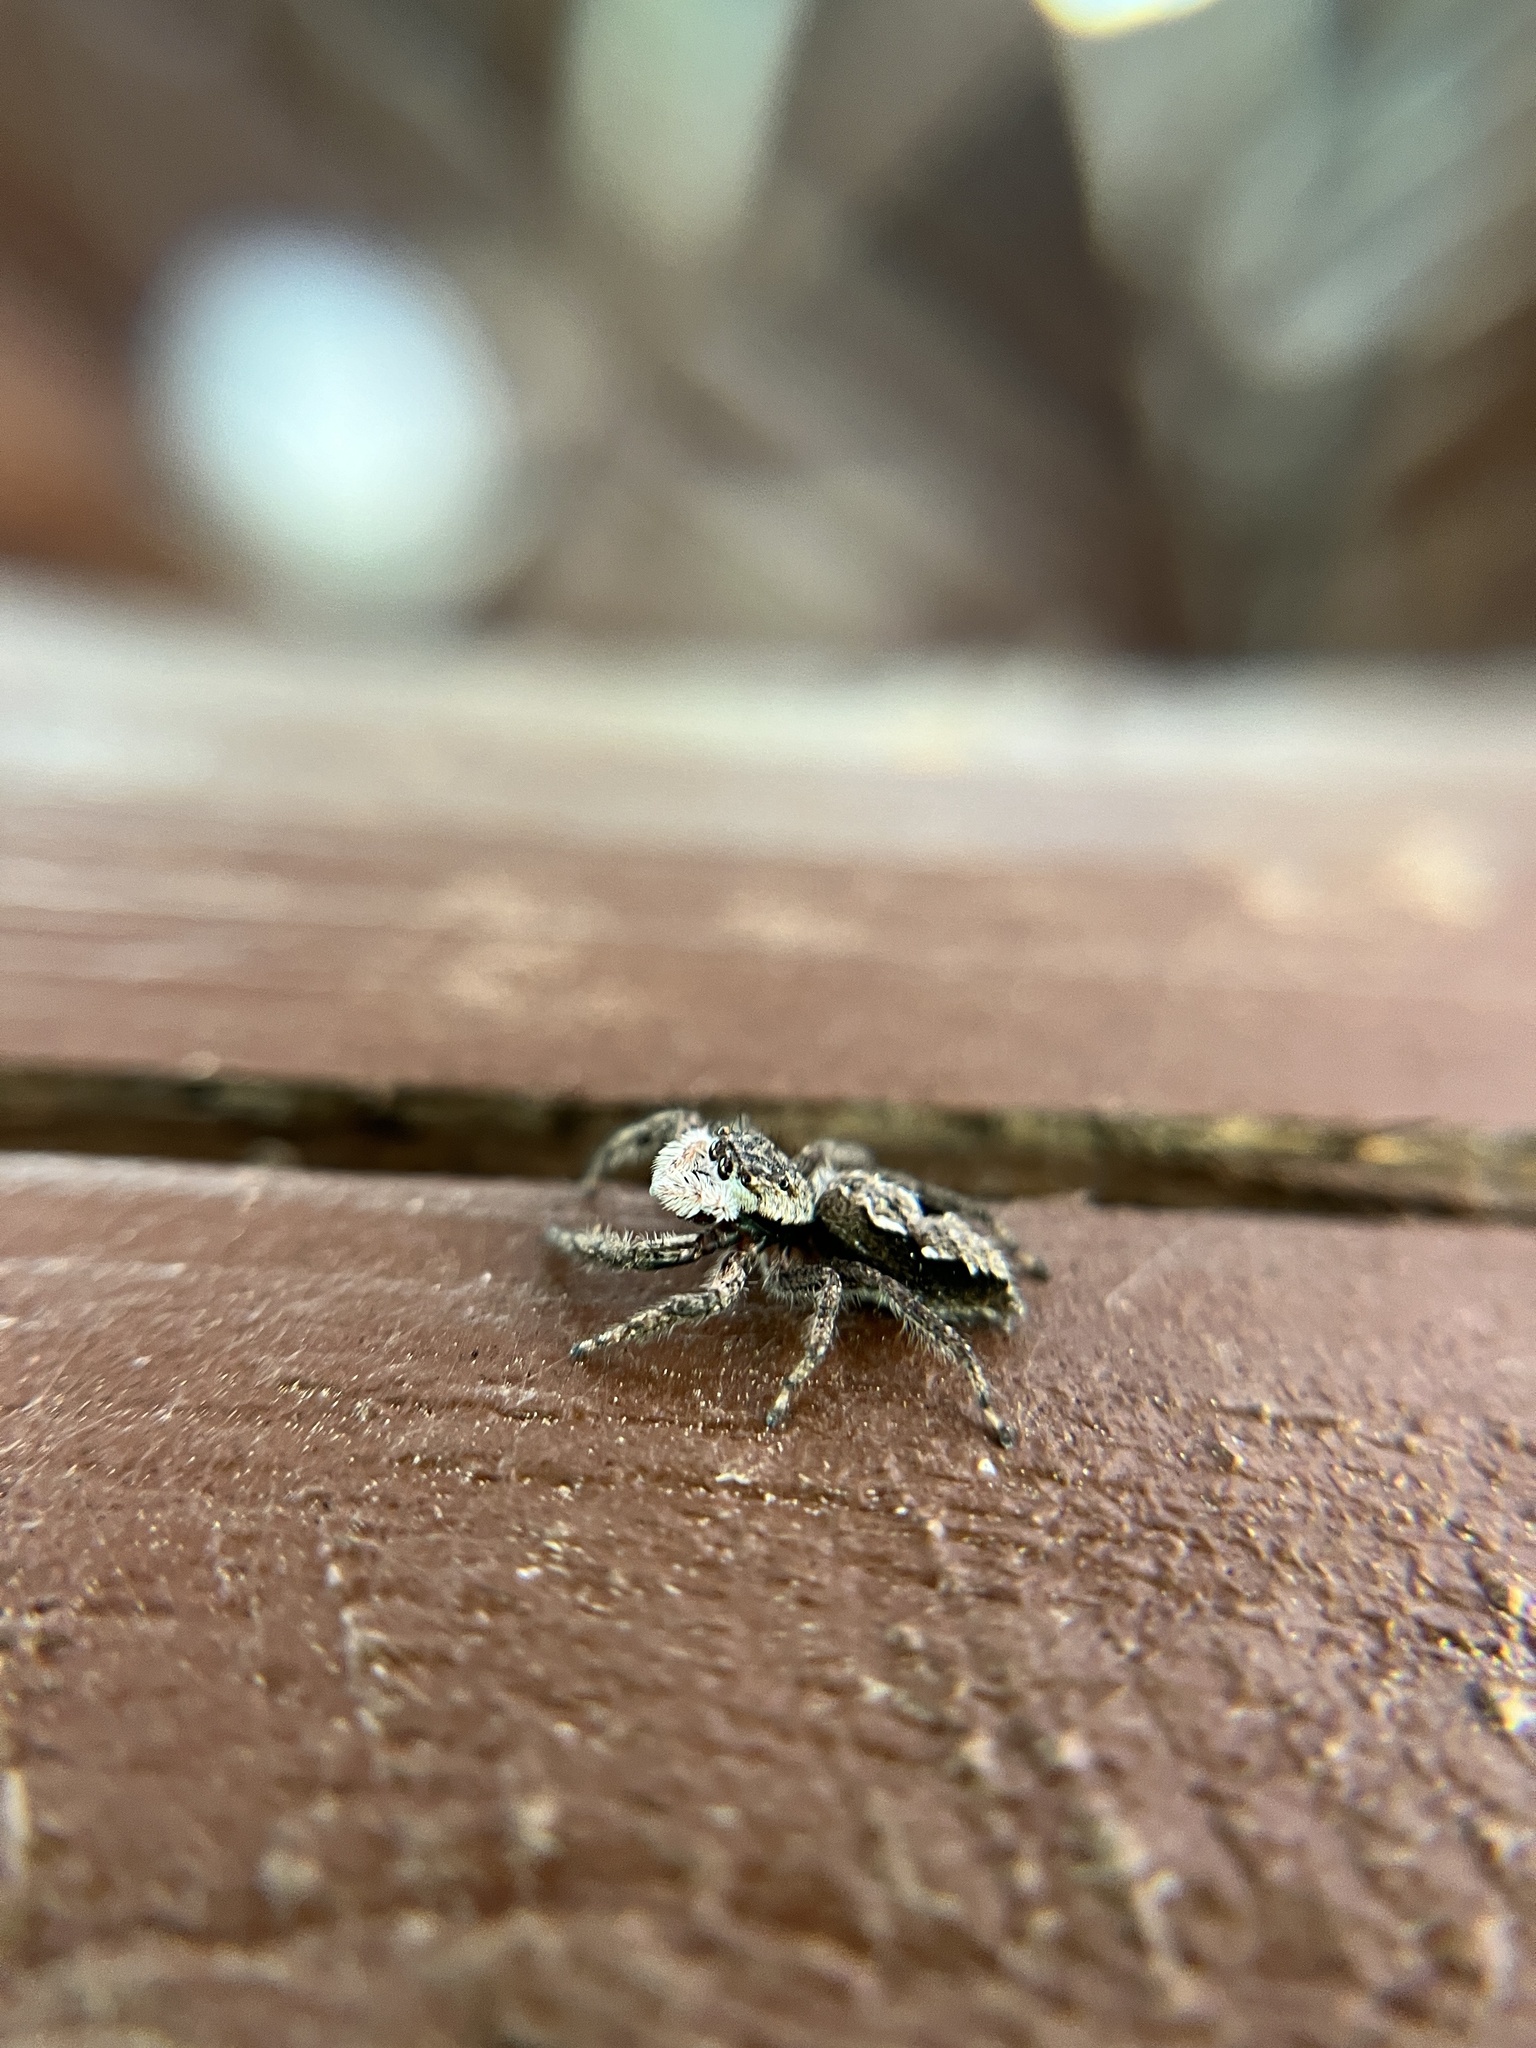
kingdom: Animalia
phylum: Arthropoda
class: Arachnida
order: Araneae
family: Salticidae
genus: Platycryptus
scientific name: Platycryptus undatus
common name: Tan jumping spider
